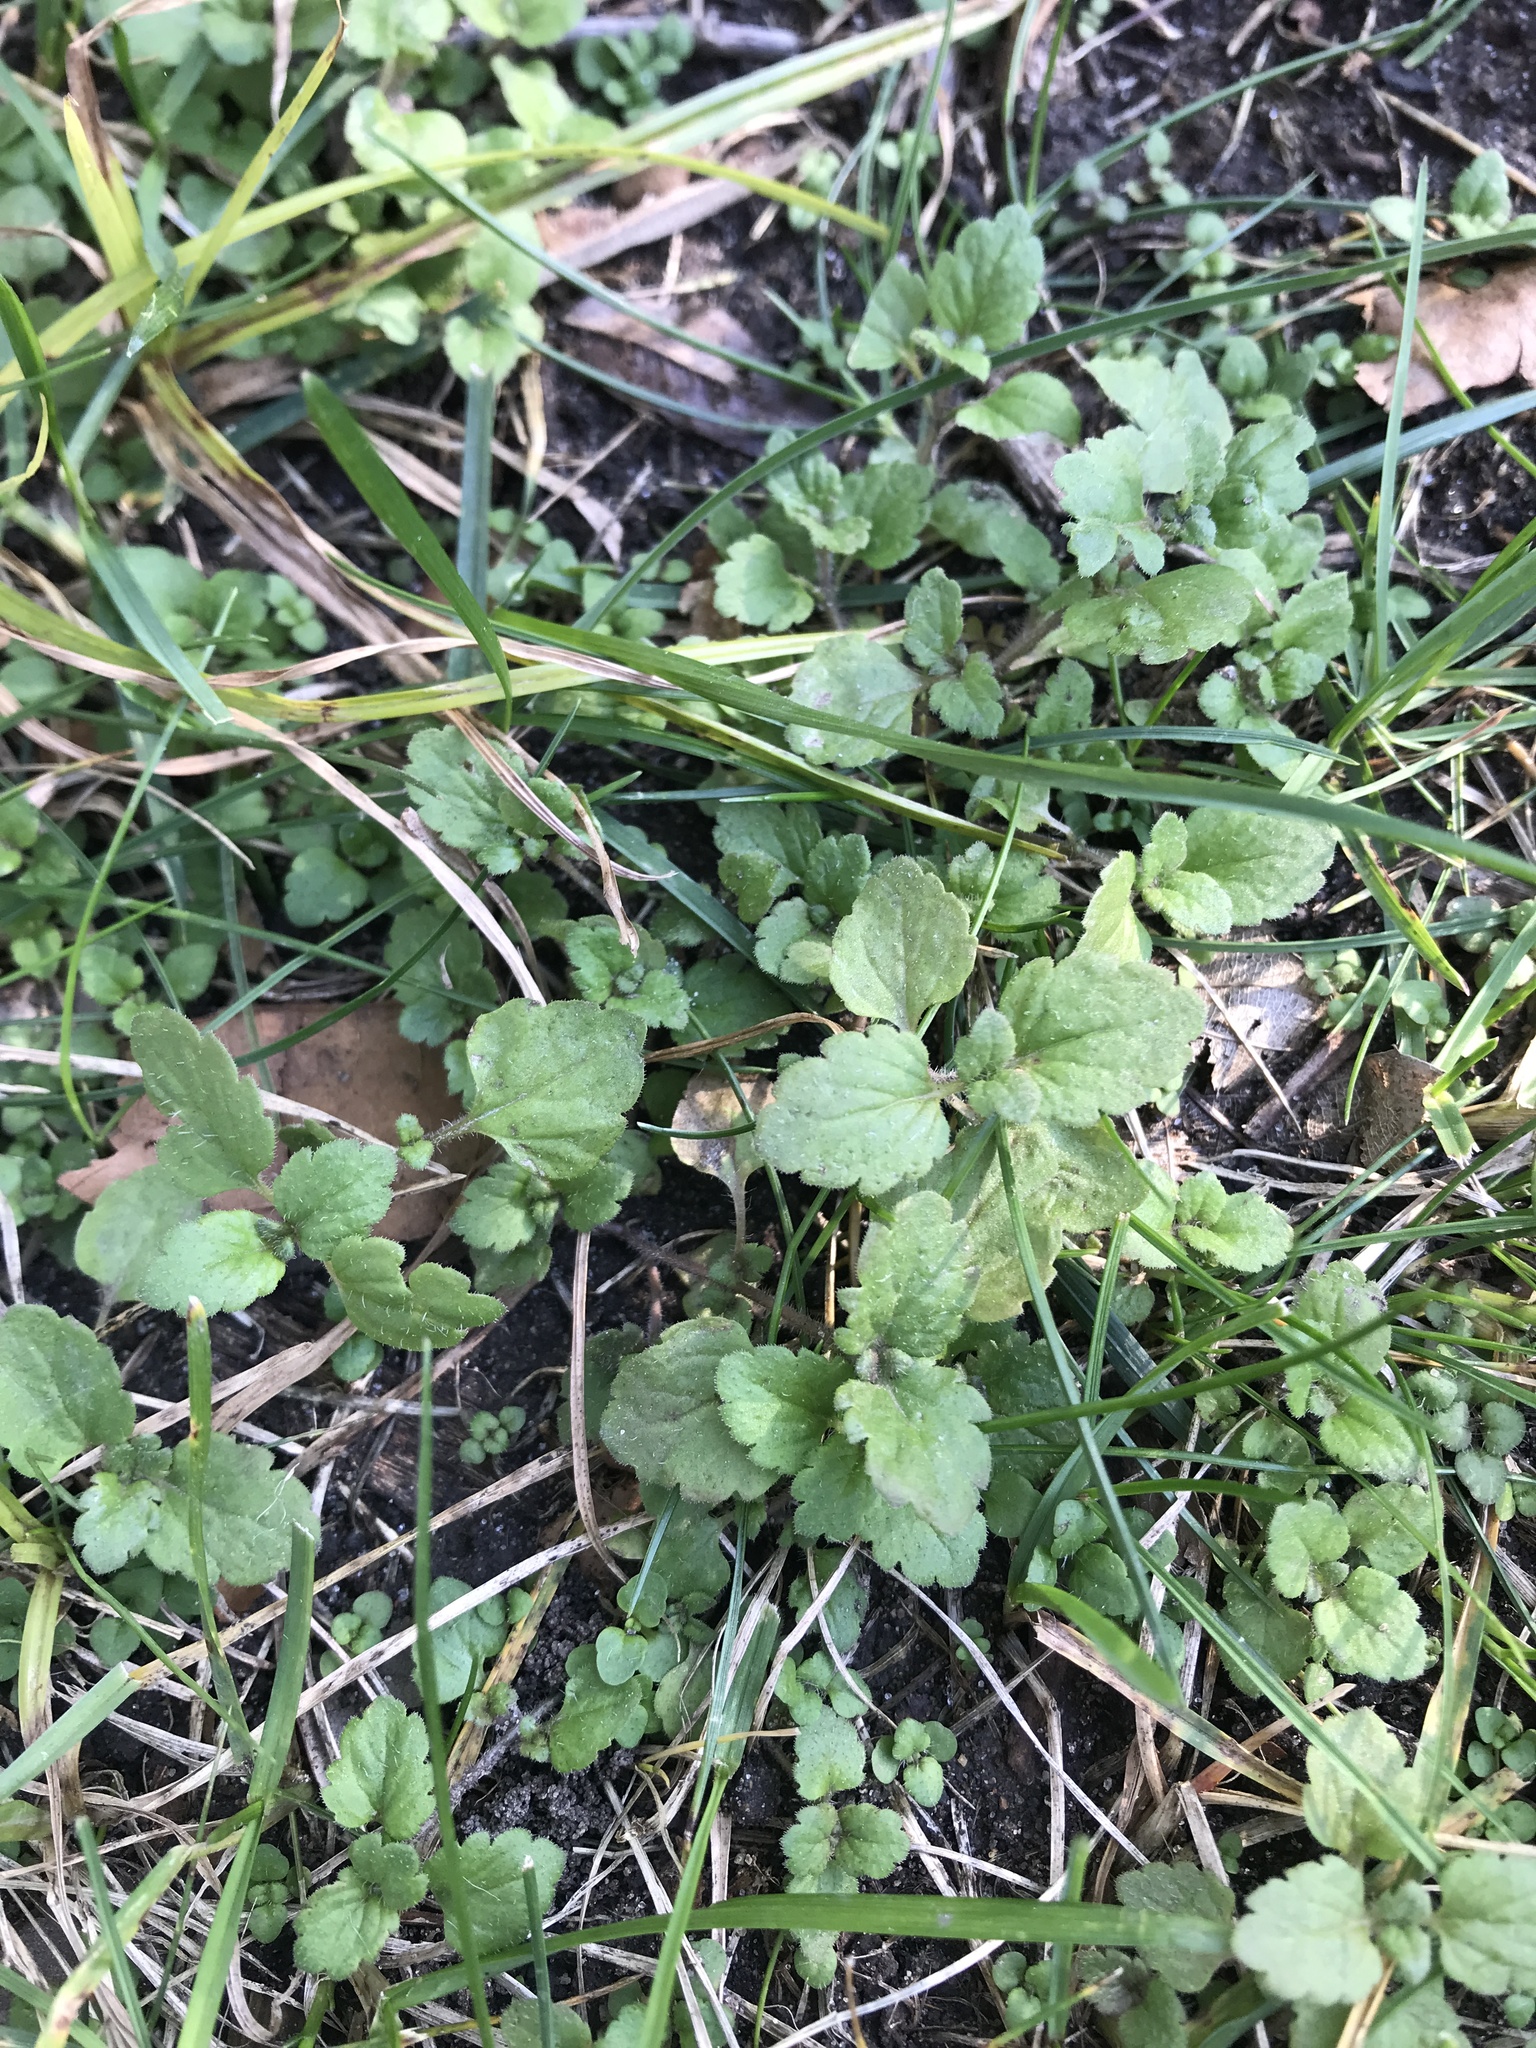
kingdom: Plantae
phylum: Tracheophyta
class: Magnoliopsida
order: Lamiales
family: Plantaginaceae
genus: Veronica
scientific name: Veronica persica
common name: Common field-speedwell
